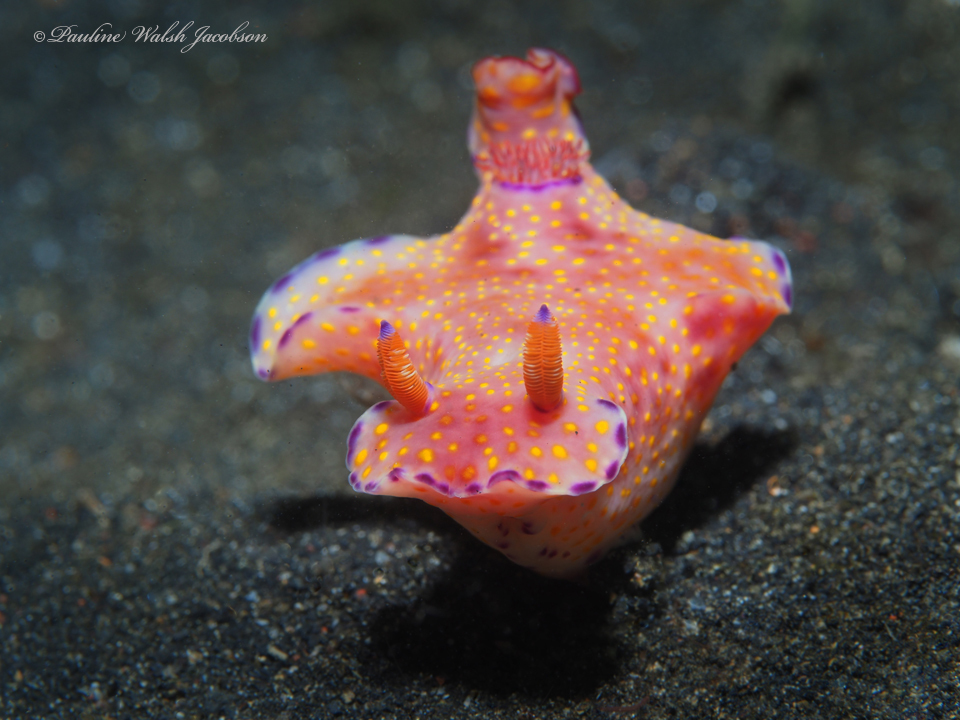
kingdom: Animalia
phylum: Mollusca
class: Gastropoda
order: Nudibranchia
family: Chromodorididae
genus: Ceratosoma
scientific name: Ceratosoma gracillimum
